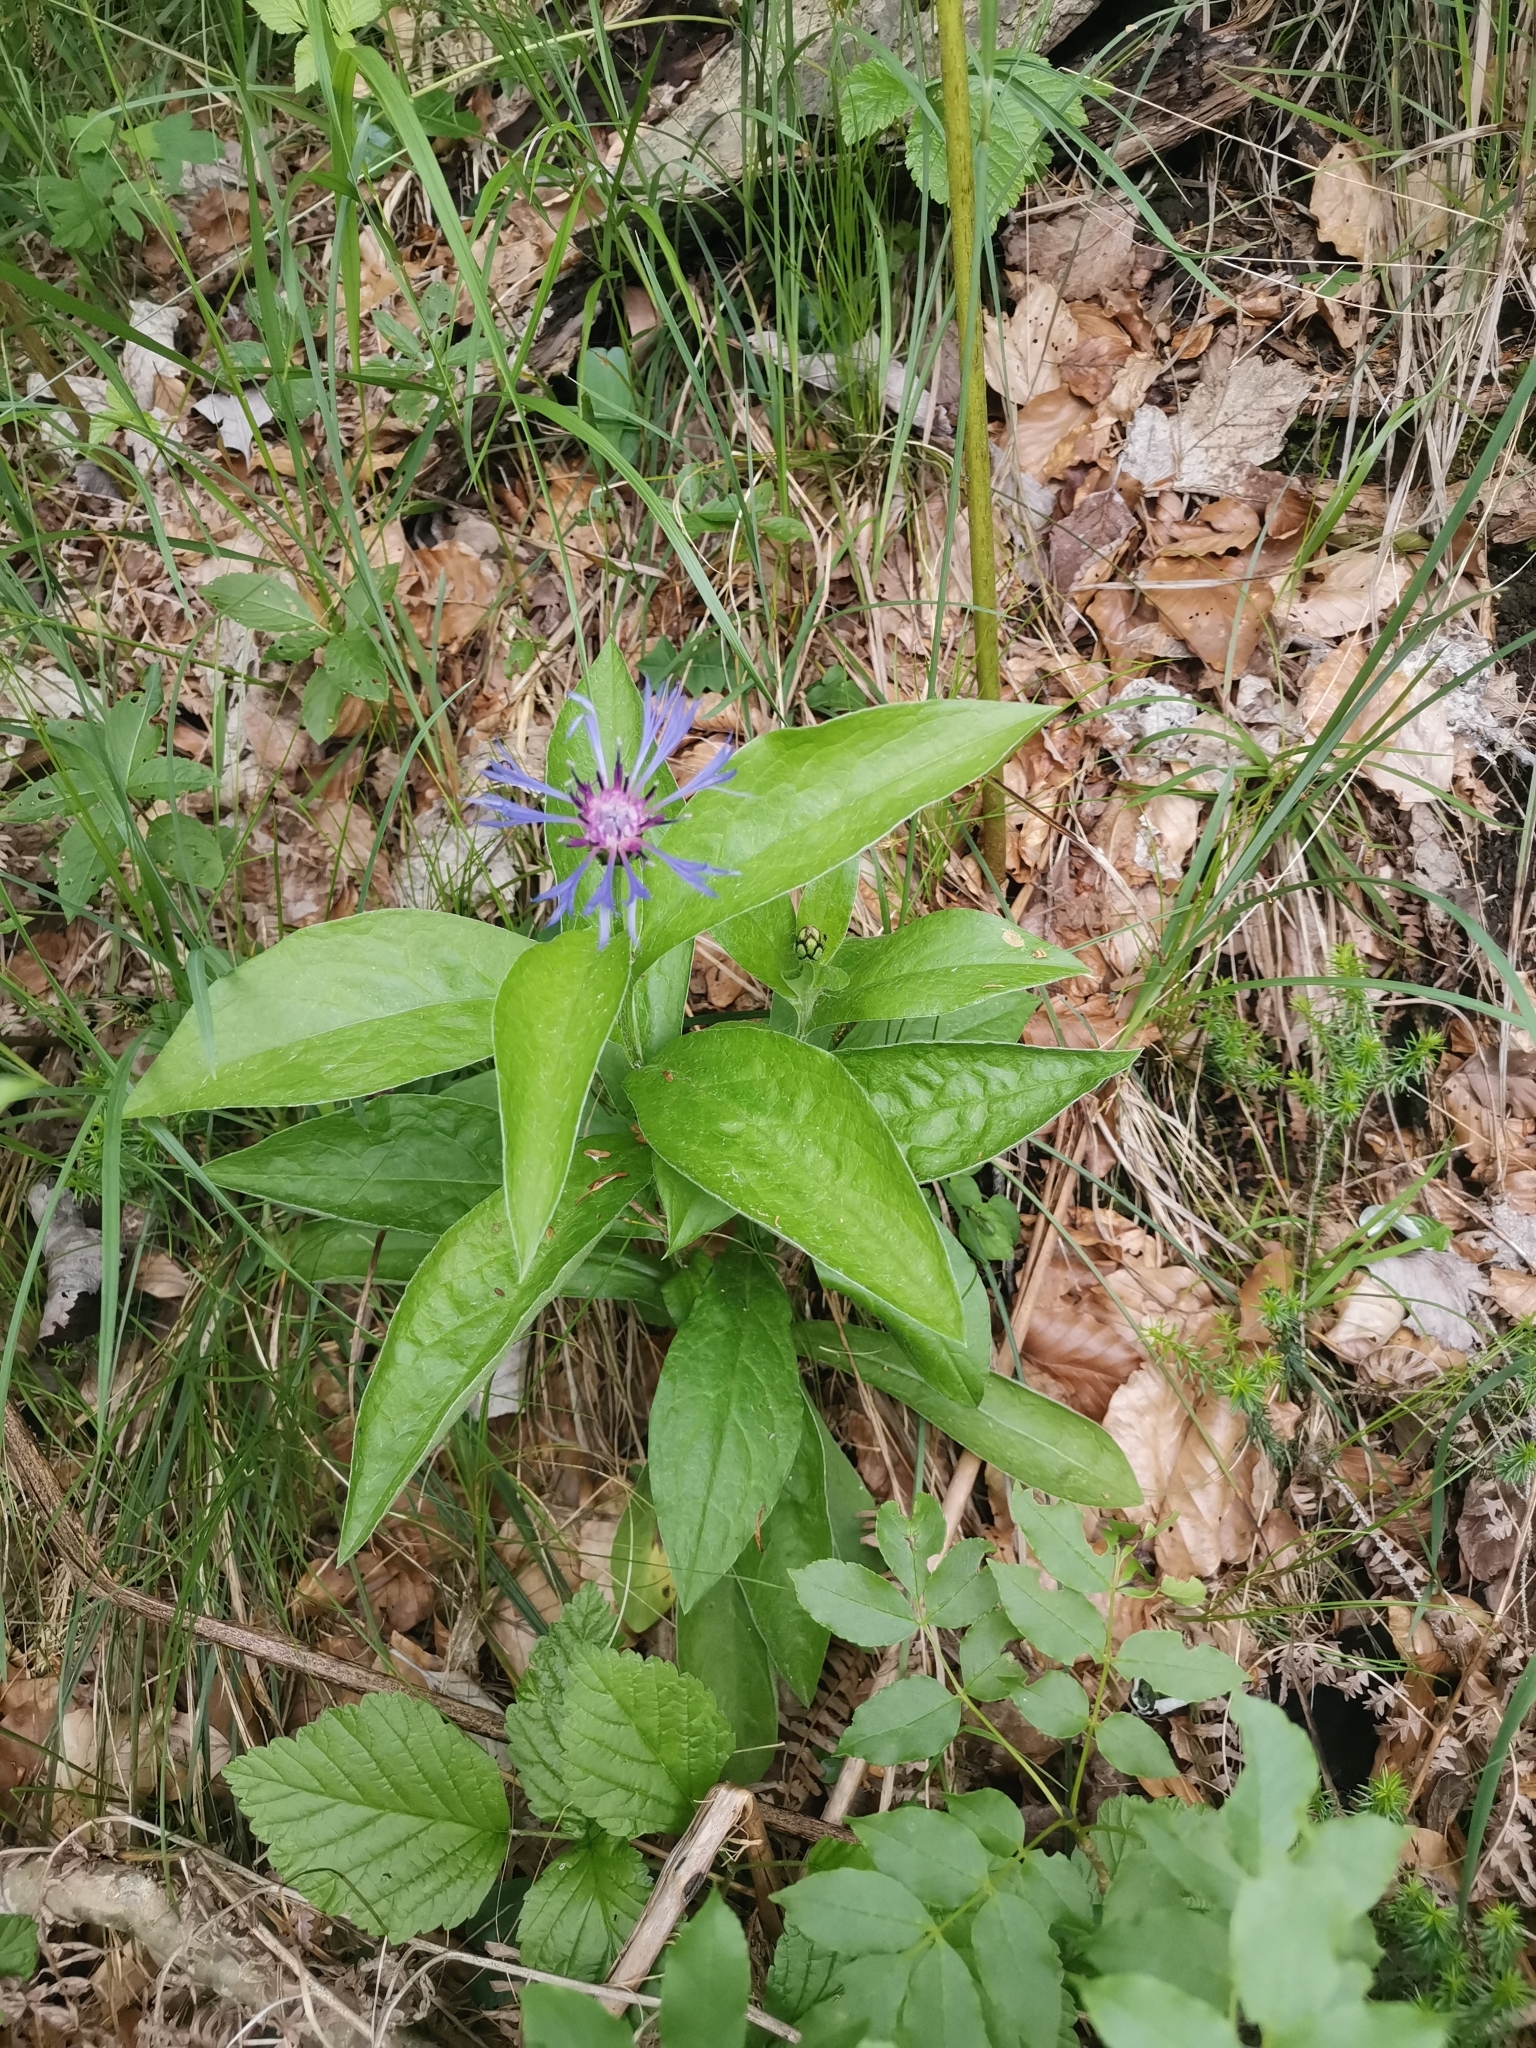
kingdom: Plantae
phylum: Tracheophyta
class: Magnoliopsida
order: Asterales
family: Asteraceae
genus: Centaurea
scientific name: Centaurea montana
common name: Perennial cornflower
